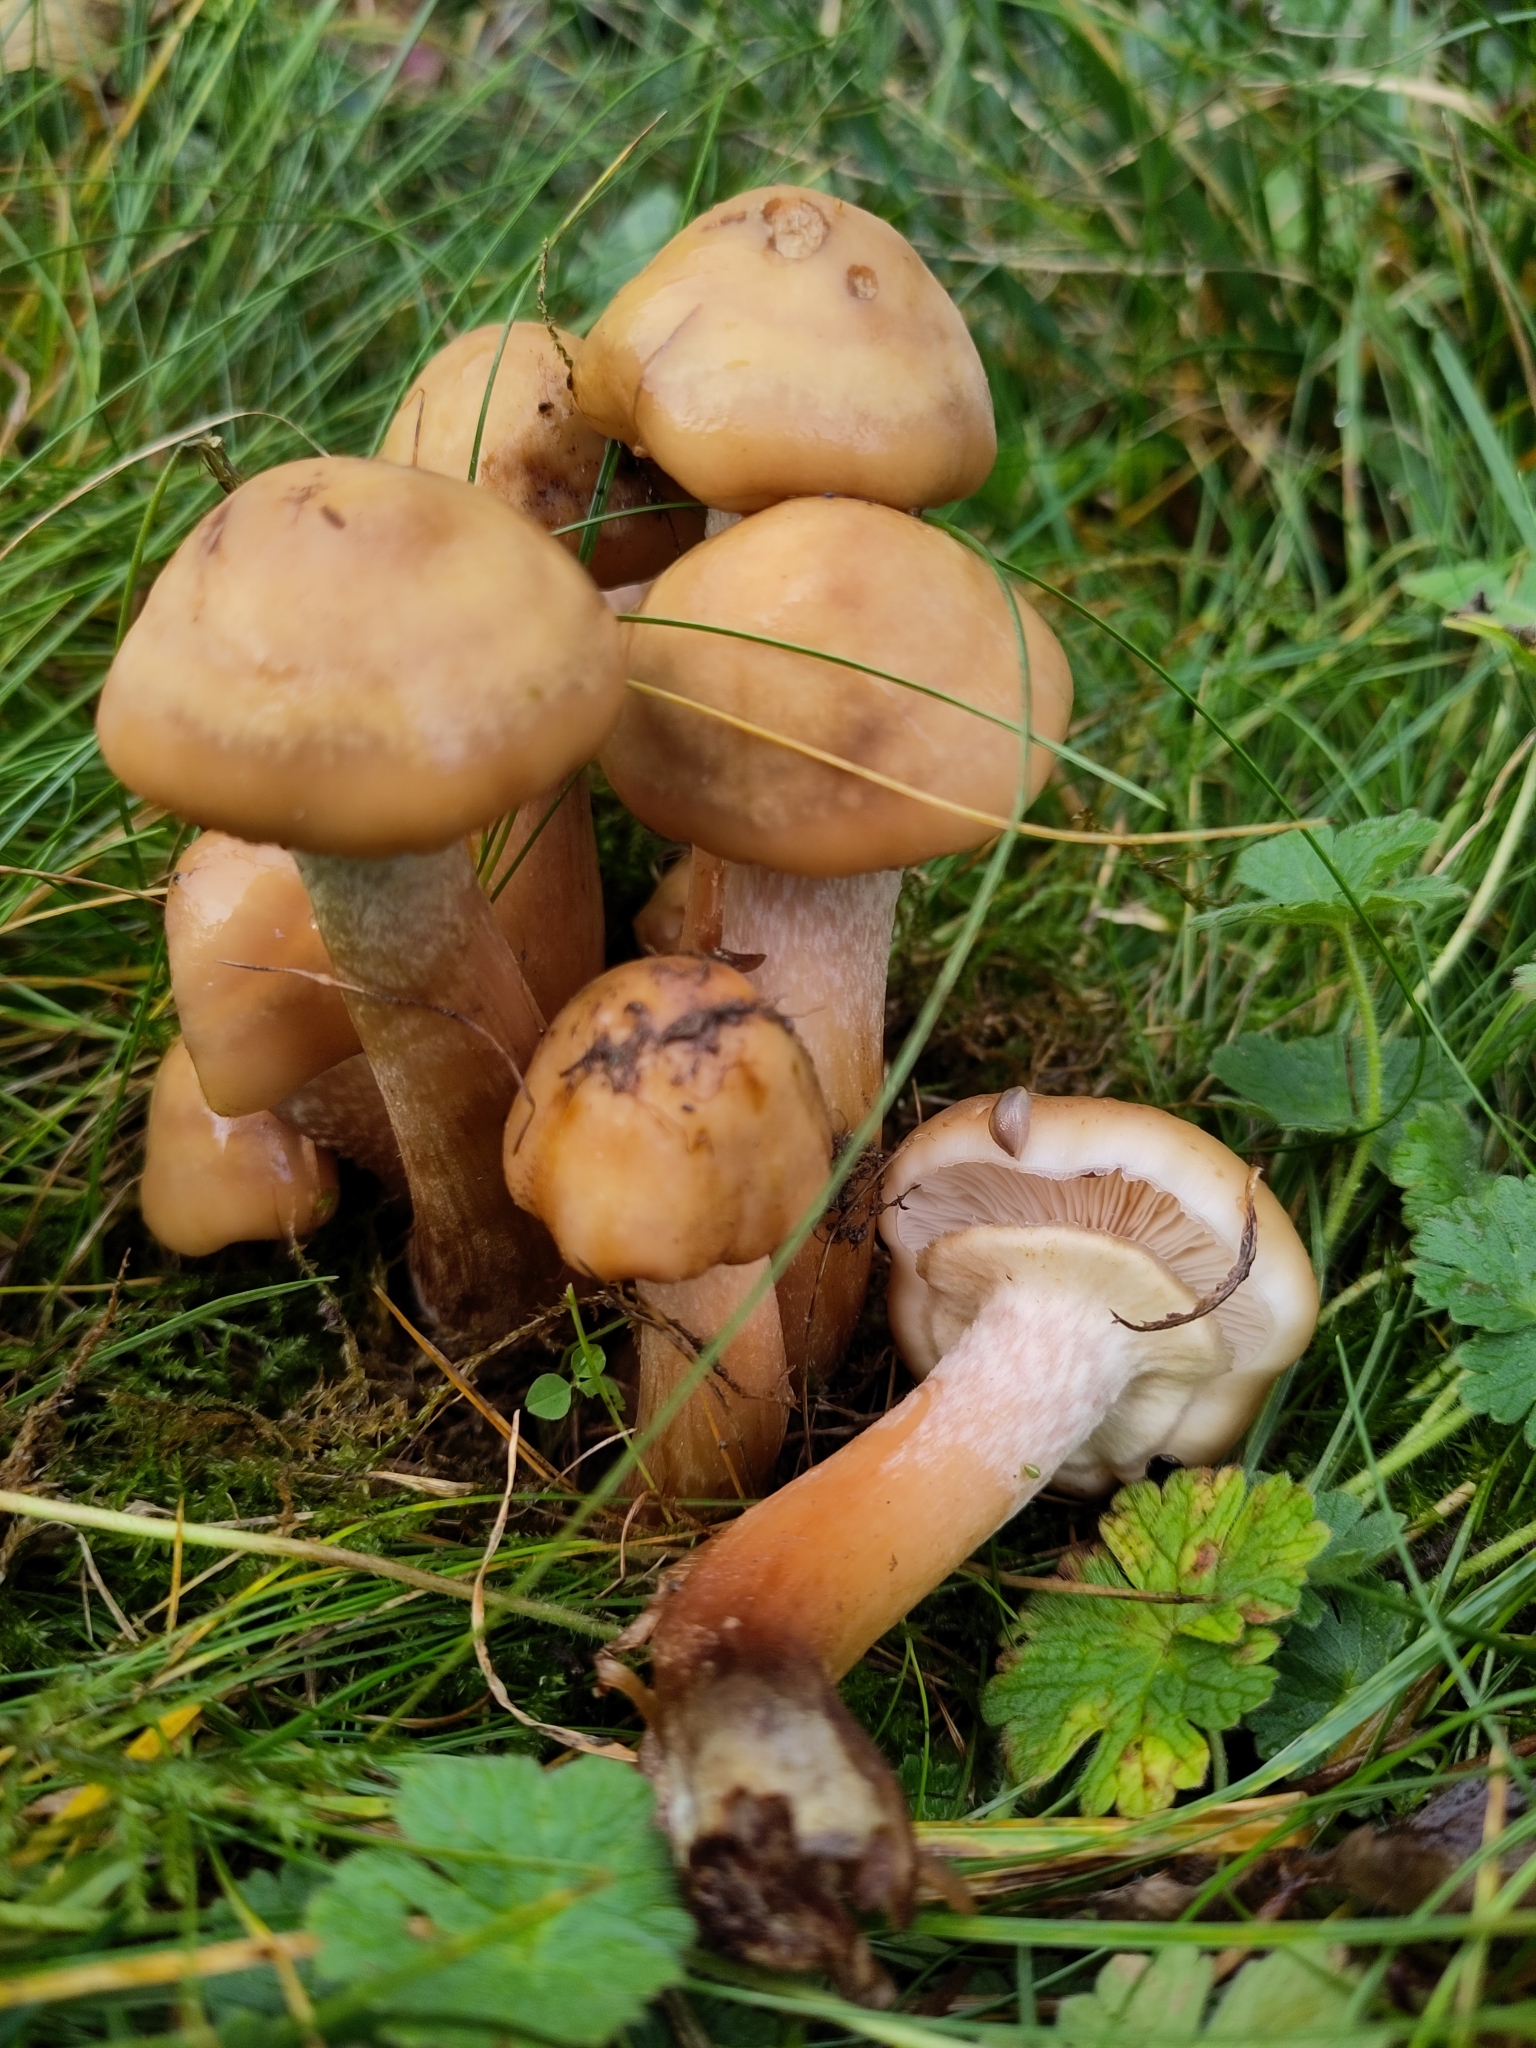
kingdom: Fungi
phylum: Basidiomycota
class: Agaricomycetes
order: Agaricales
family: Strophariaceae
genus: Kuehneromyces
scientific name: Kuehneromyces mutabilis
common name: Sheathed woodtuft
